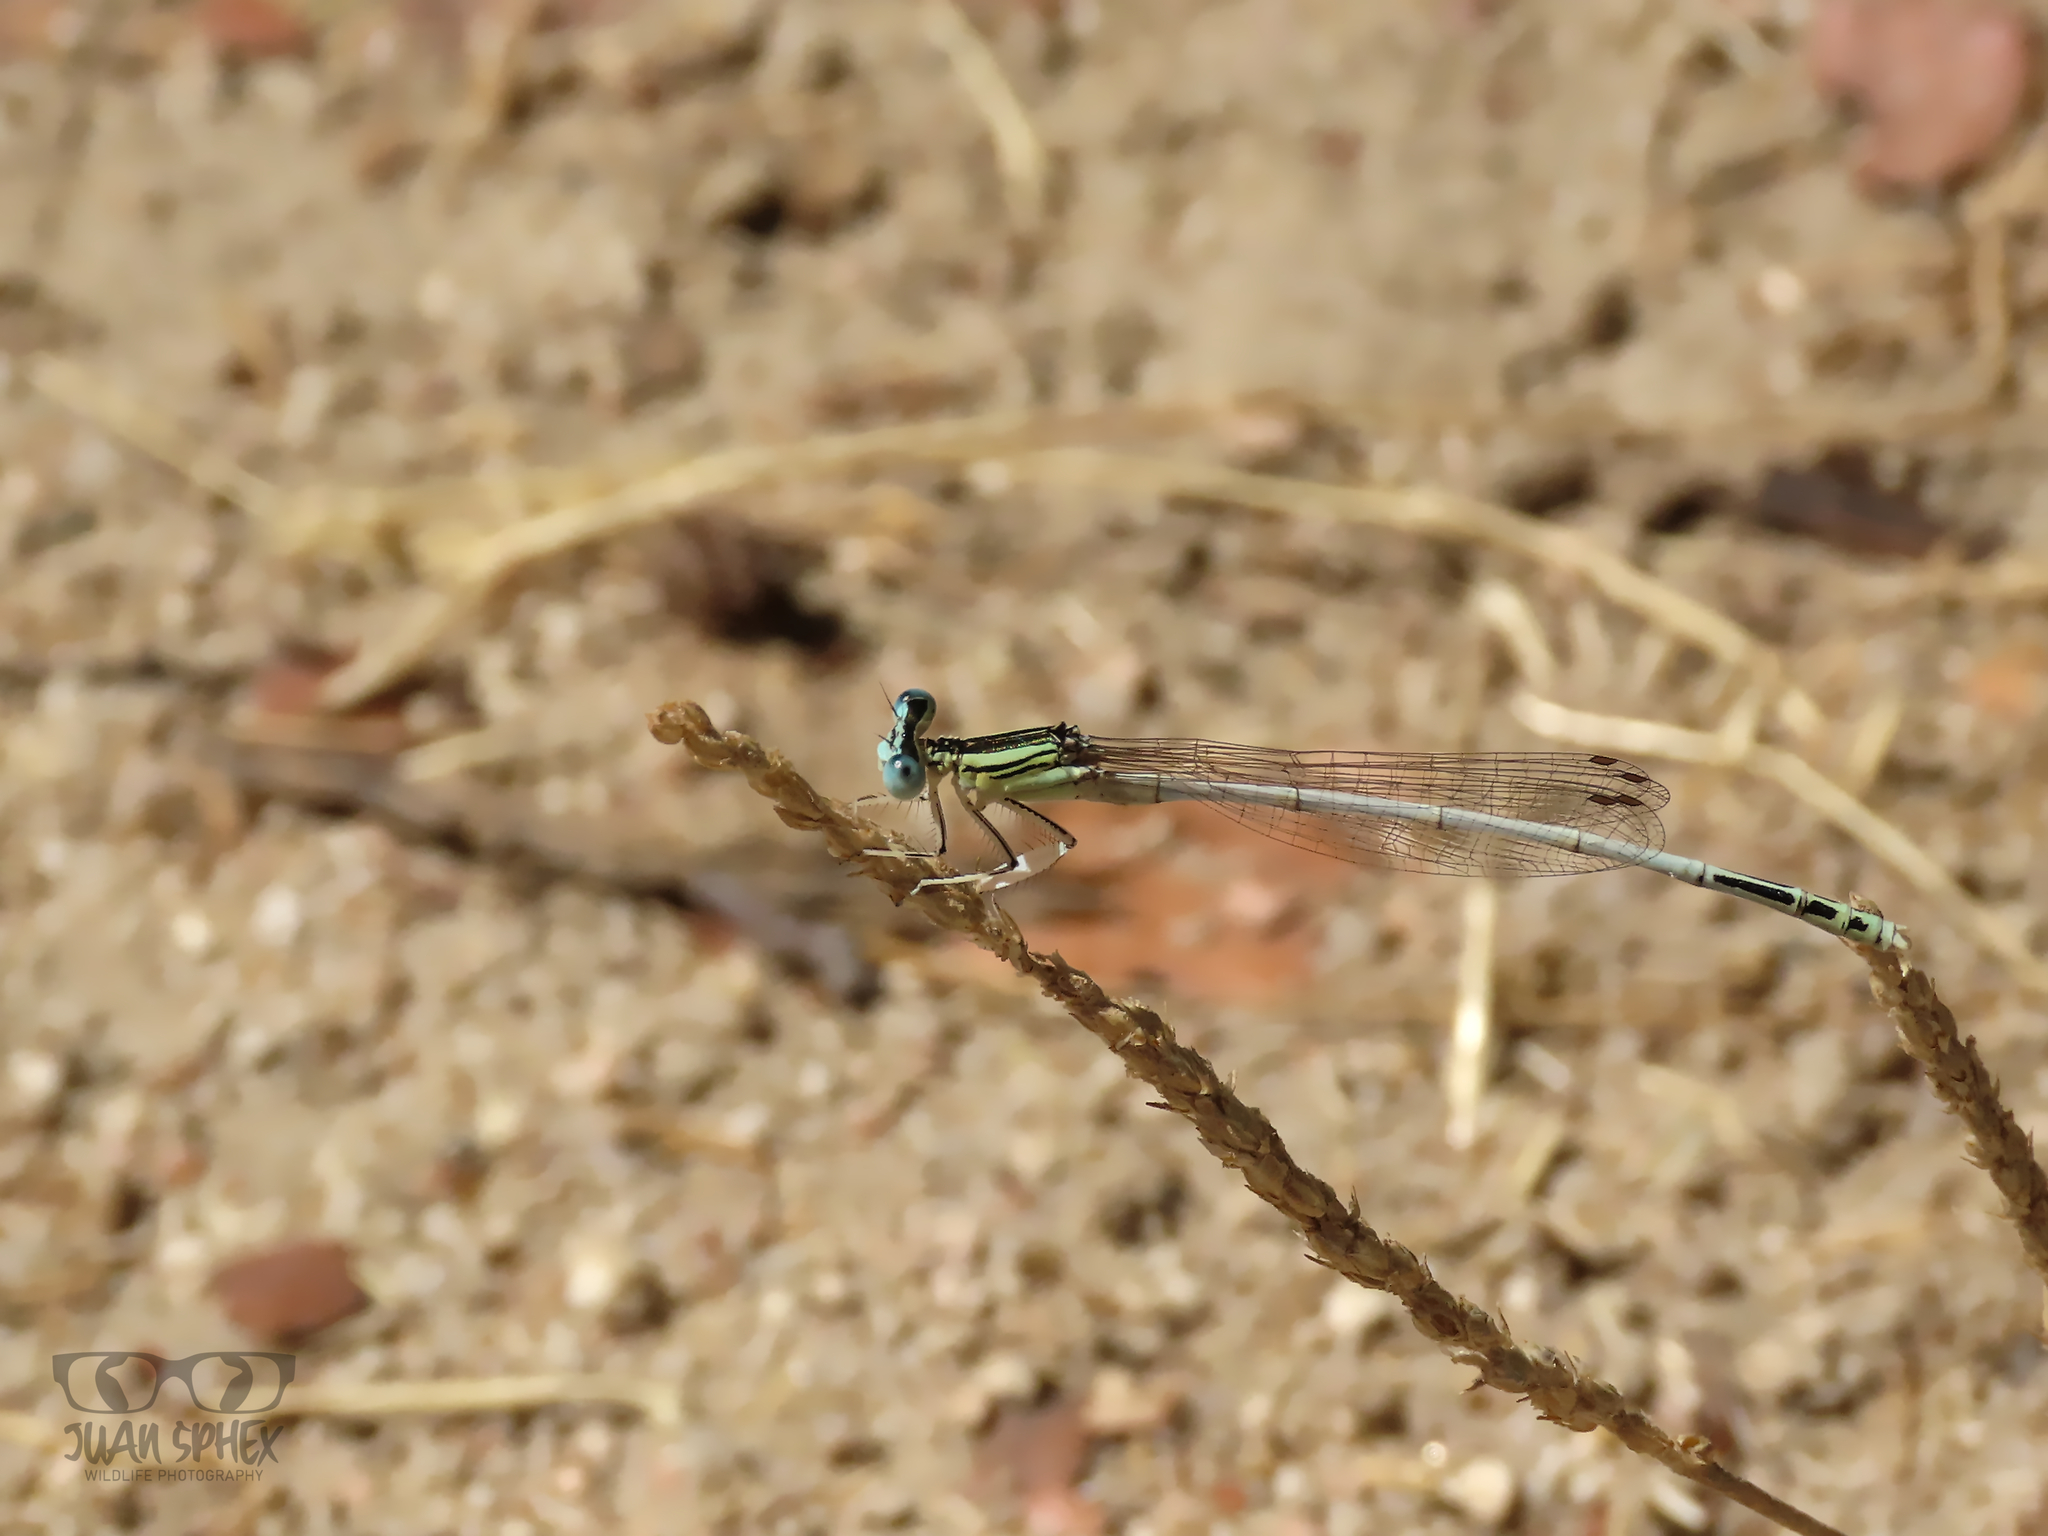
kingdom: Animalia
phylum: Arthropoda
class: Insecta
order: Odonata
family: Platycnemididae
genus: Platycnemis
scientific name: Platycnemis latipes
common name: White featherleg
